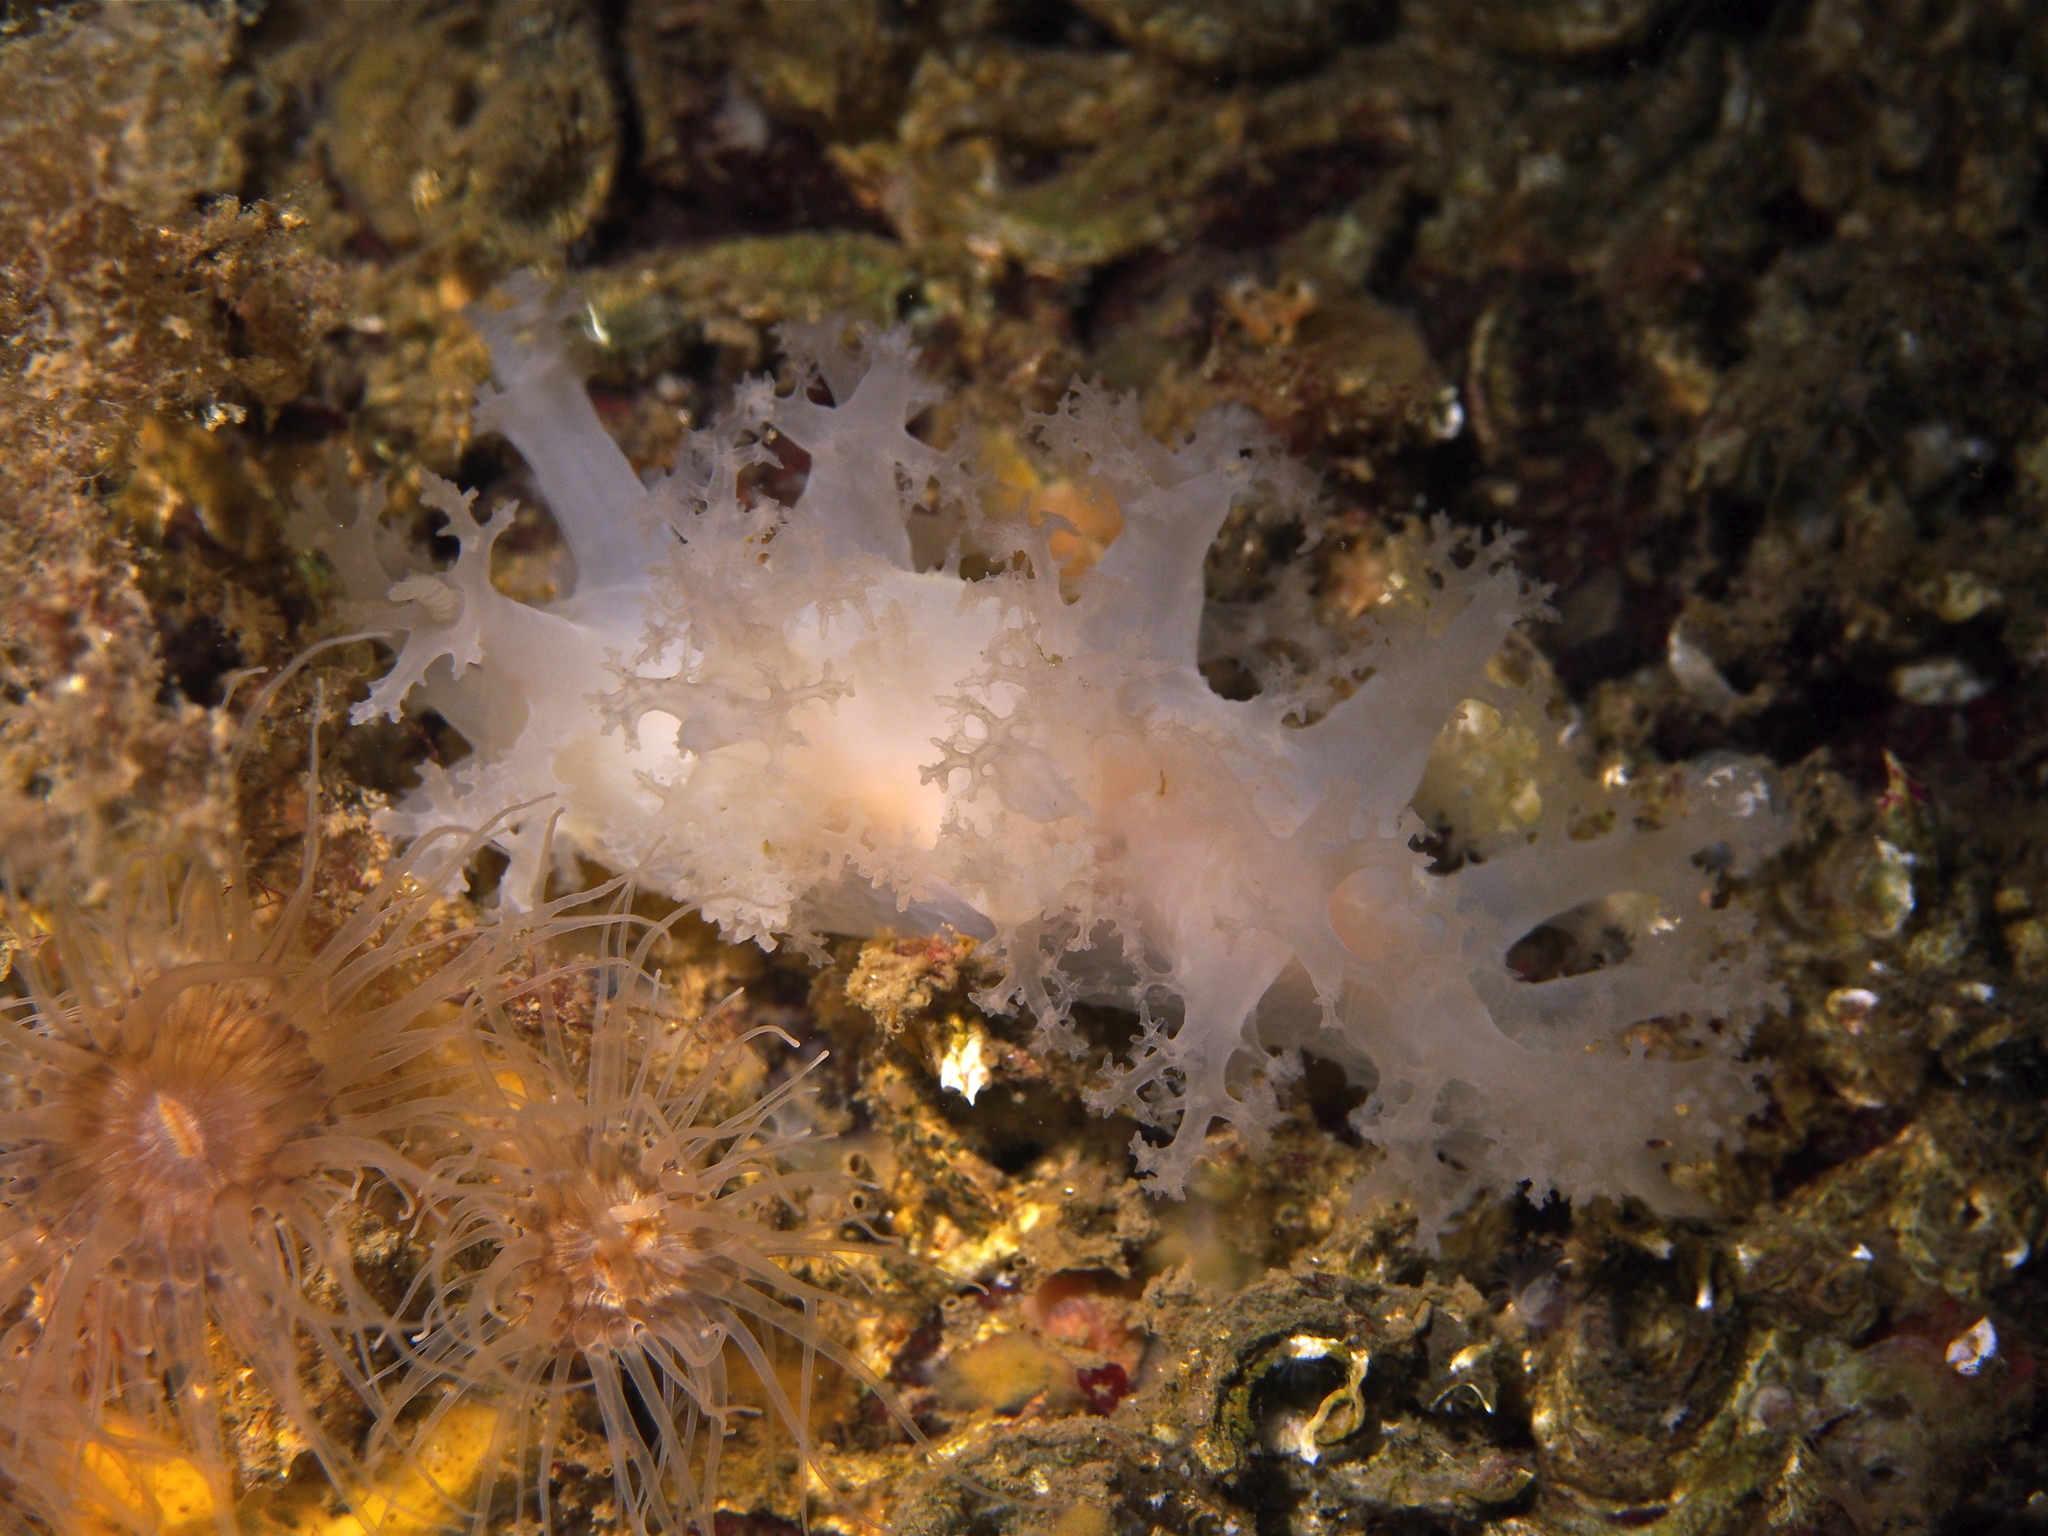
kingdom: Animalia
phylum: Mollusca
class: Gastropoda
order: Nudibranchia
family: Dendronotidae
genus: Dendronotus
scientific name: Dendronotus lacteus
